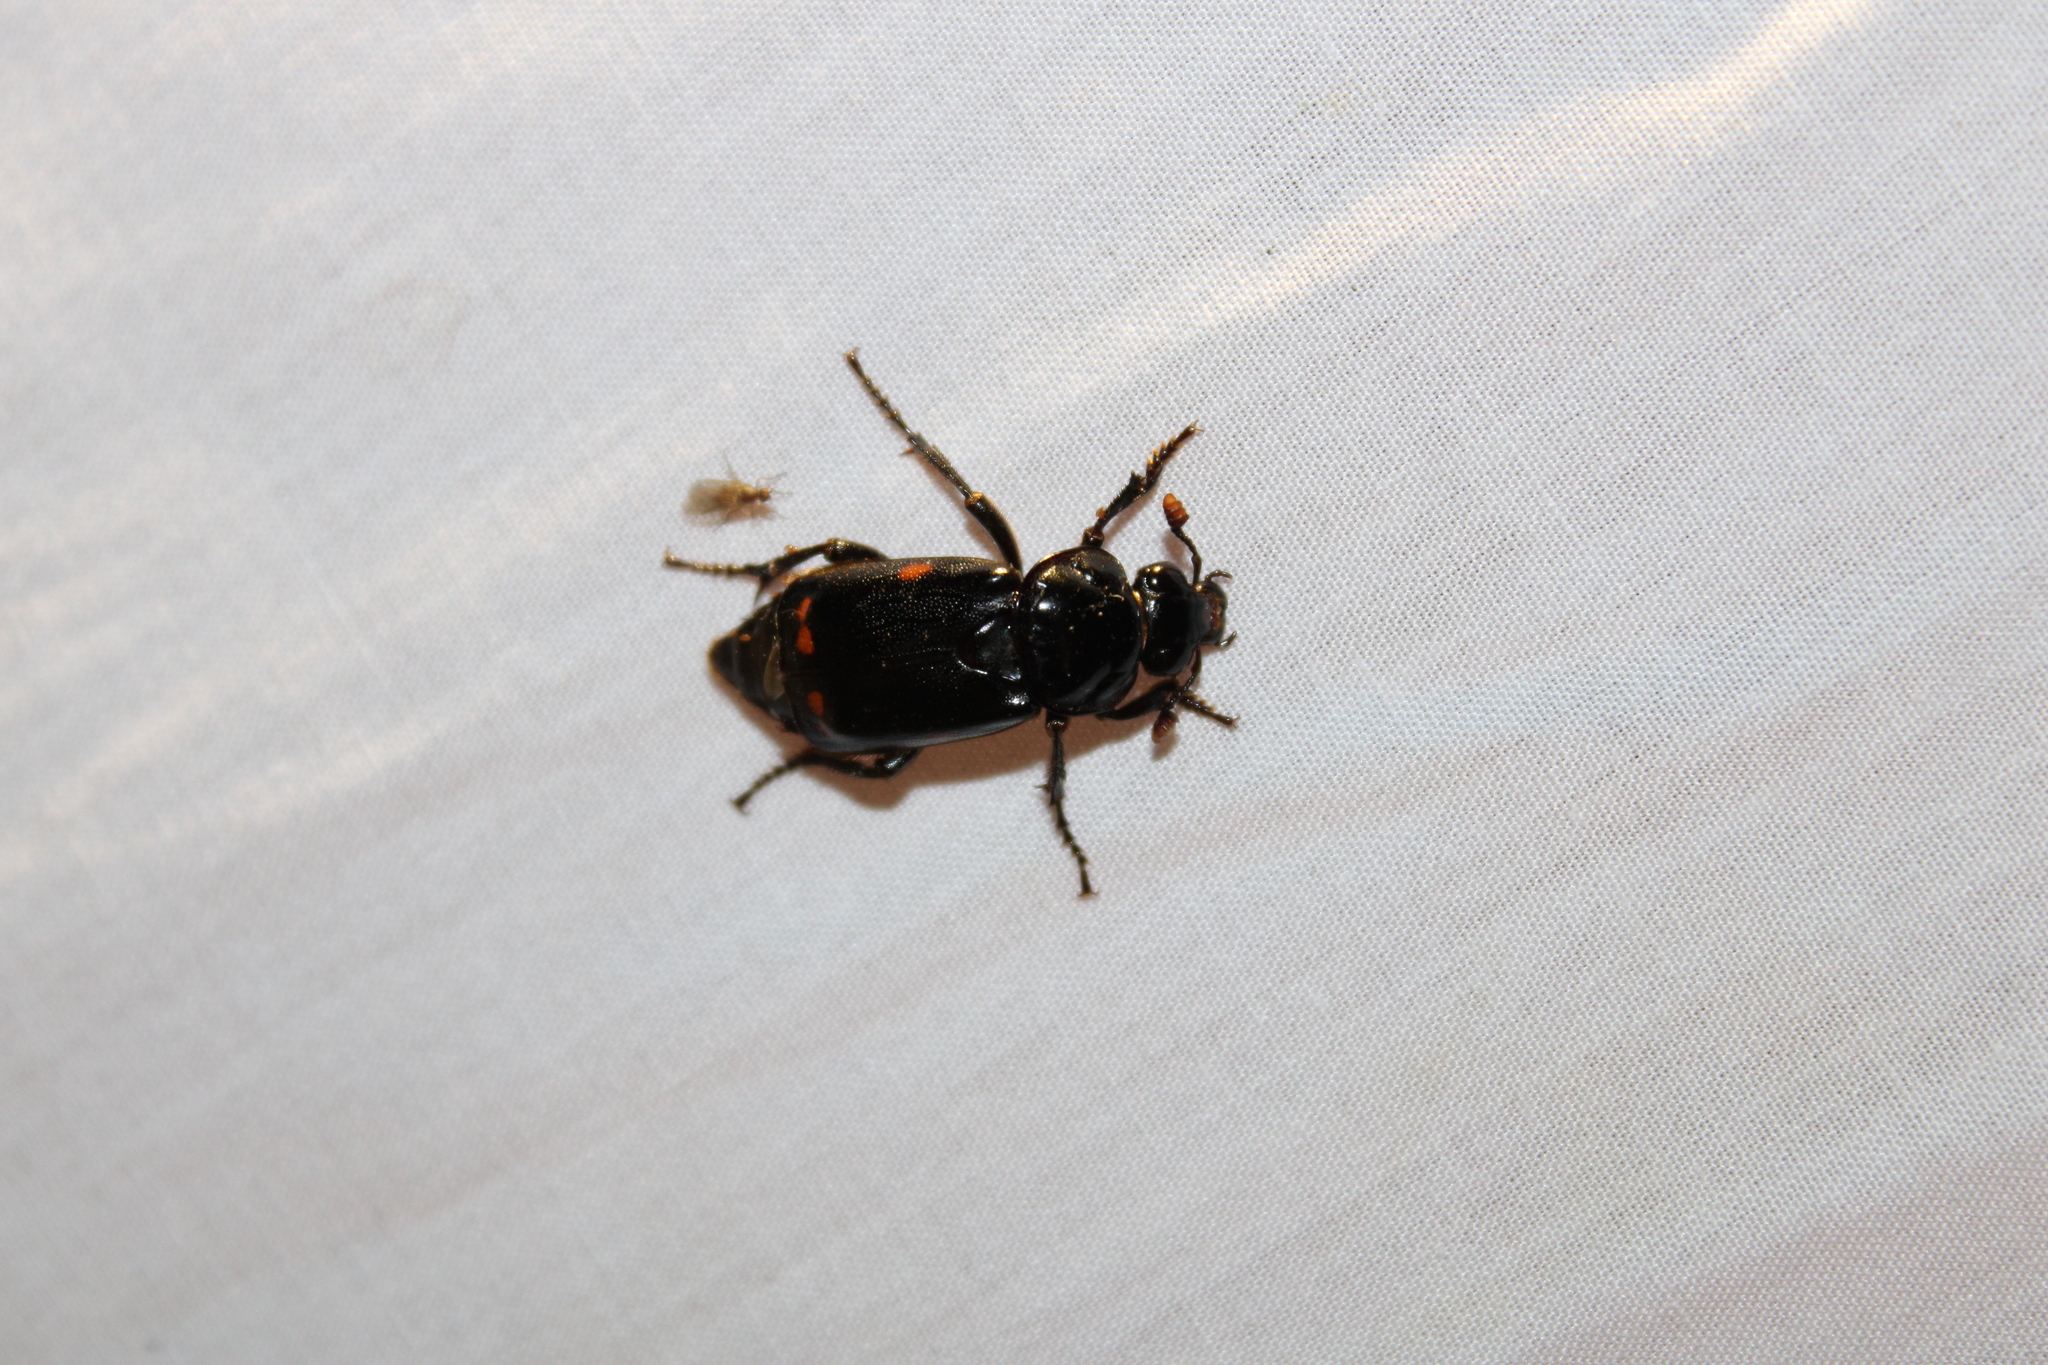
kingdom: Animalia
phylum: Arthropoda
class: Insecta
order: Coleoptera
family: Staphylinidae
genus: Nicrophorus
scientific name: Nicrophorus pustulatus
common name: Pustulated carrion beetle
